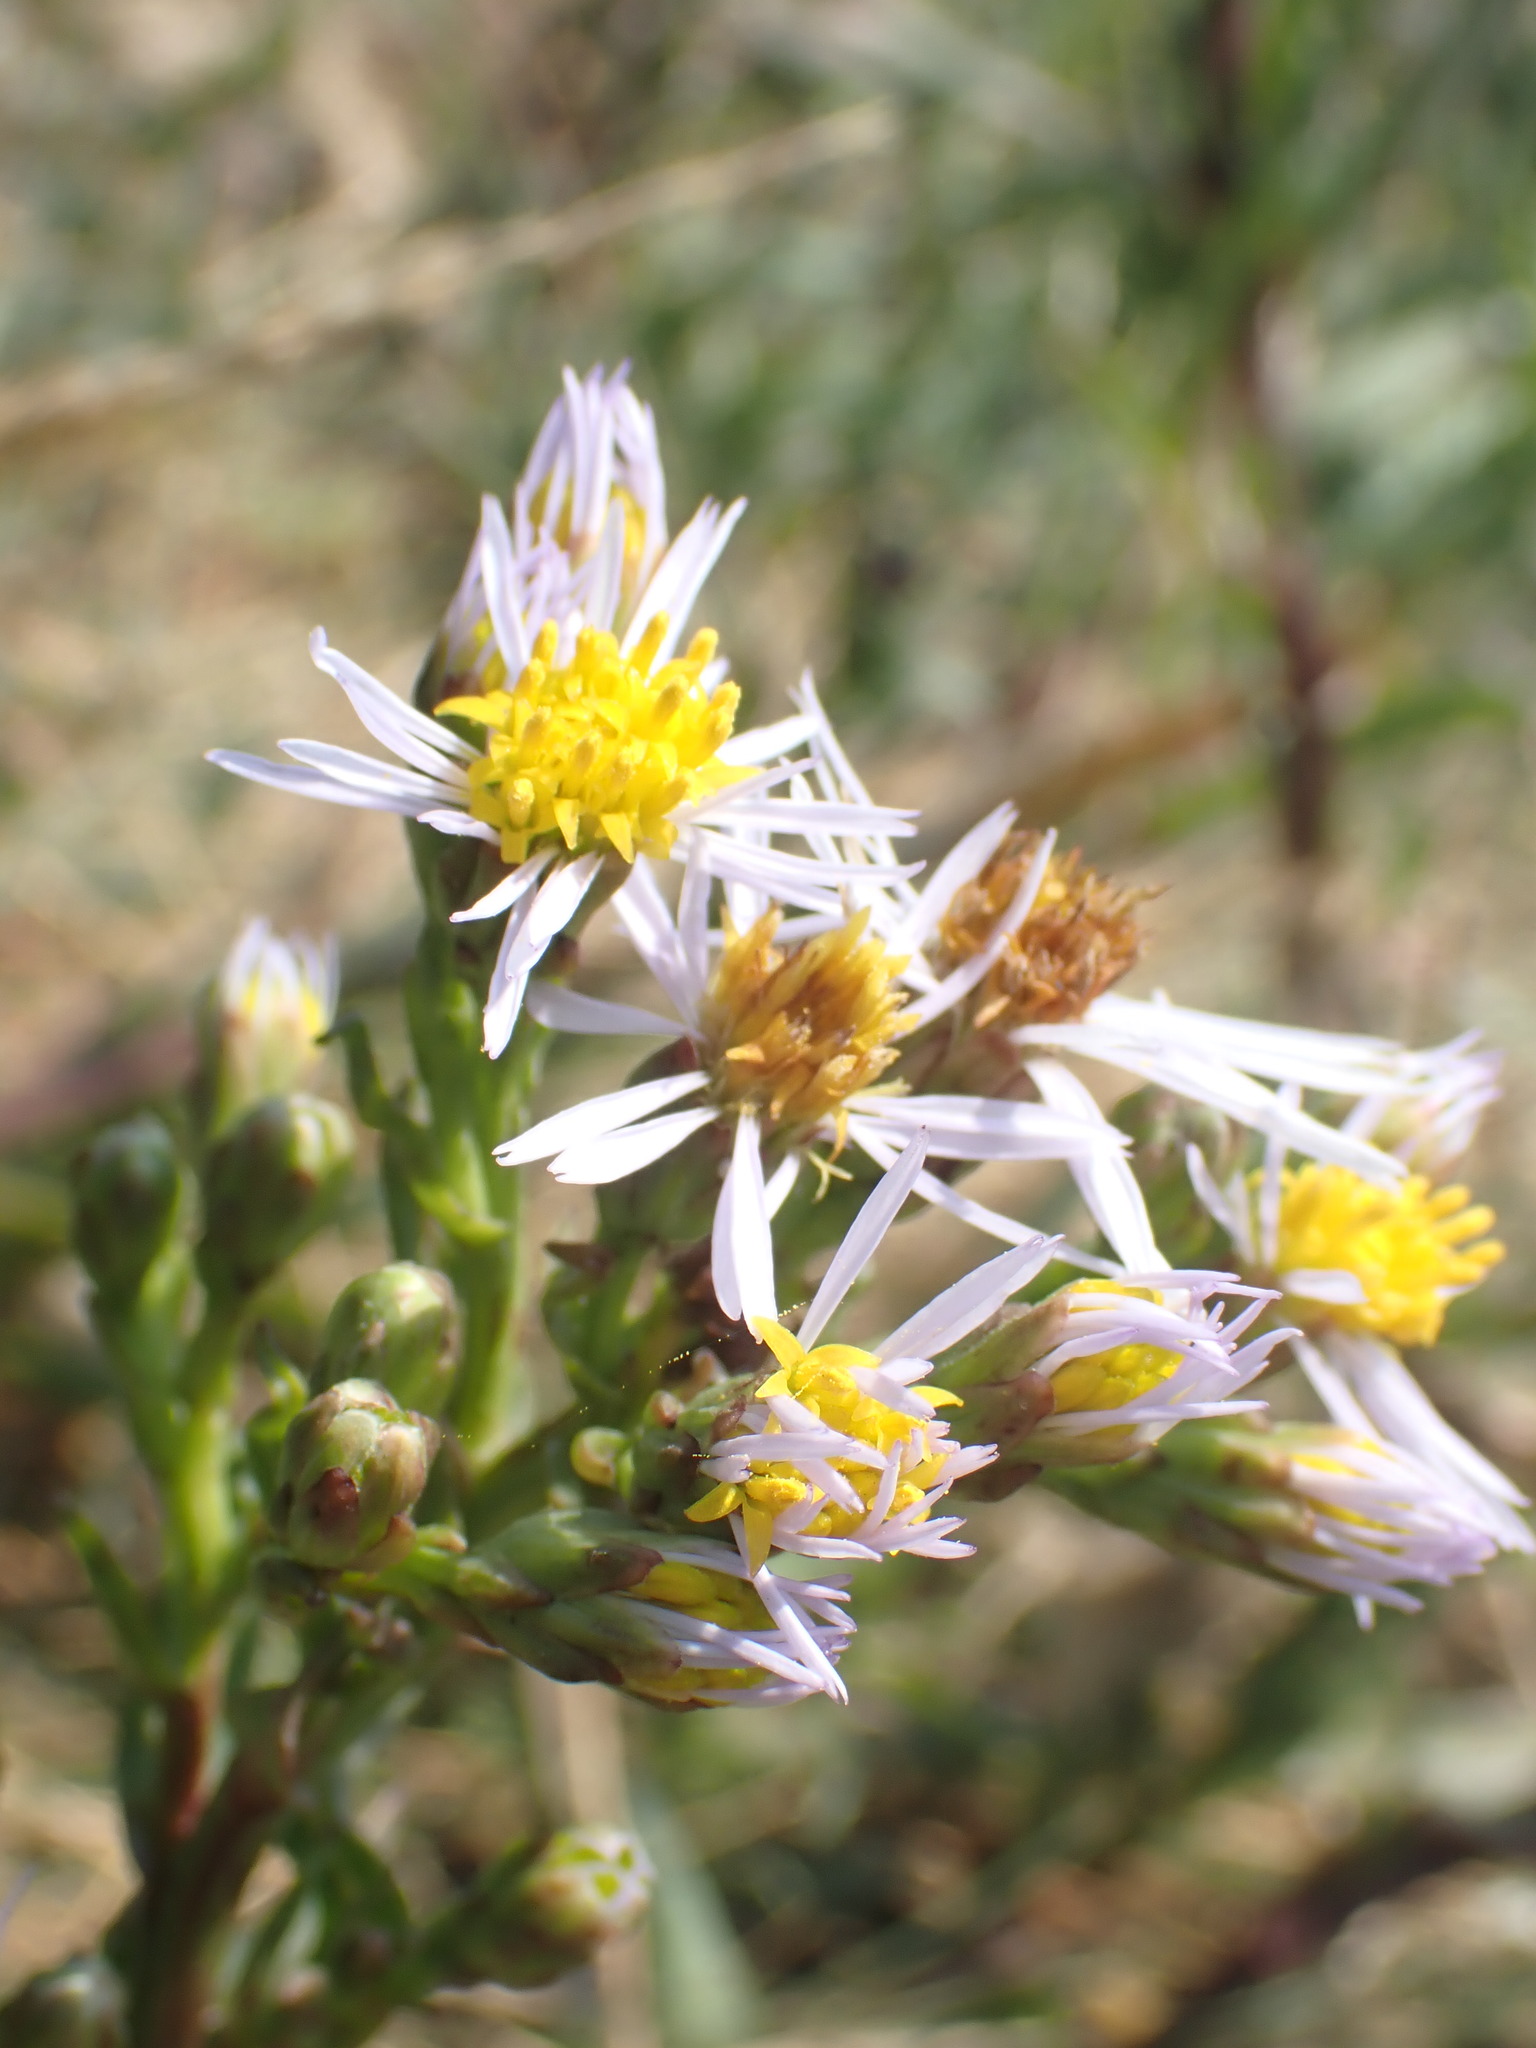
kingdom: Plantae
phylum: Tracheophyta
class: Magnoliopsida
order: Asterales
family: Asteraceae
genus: Tripolium
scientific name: Tripolium pannonicum
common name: Sea aster
